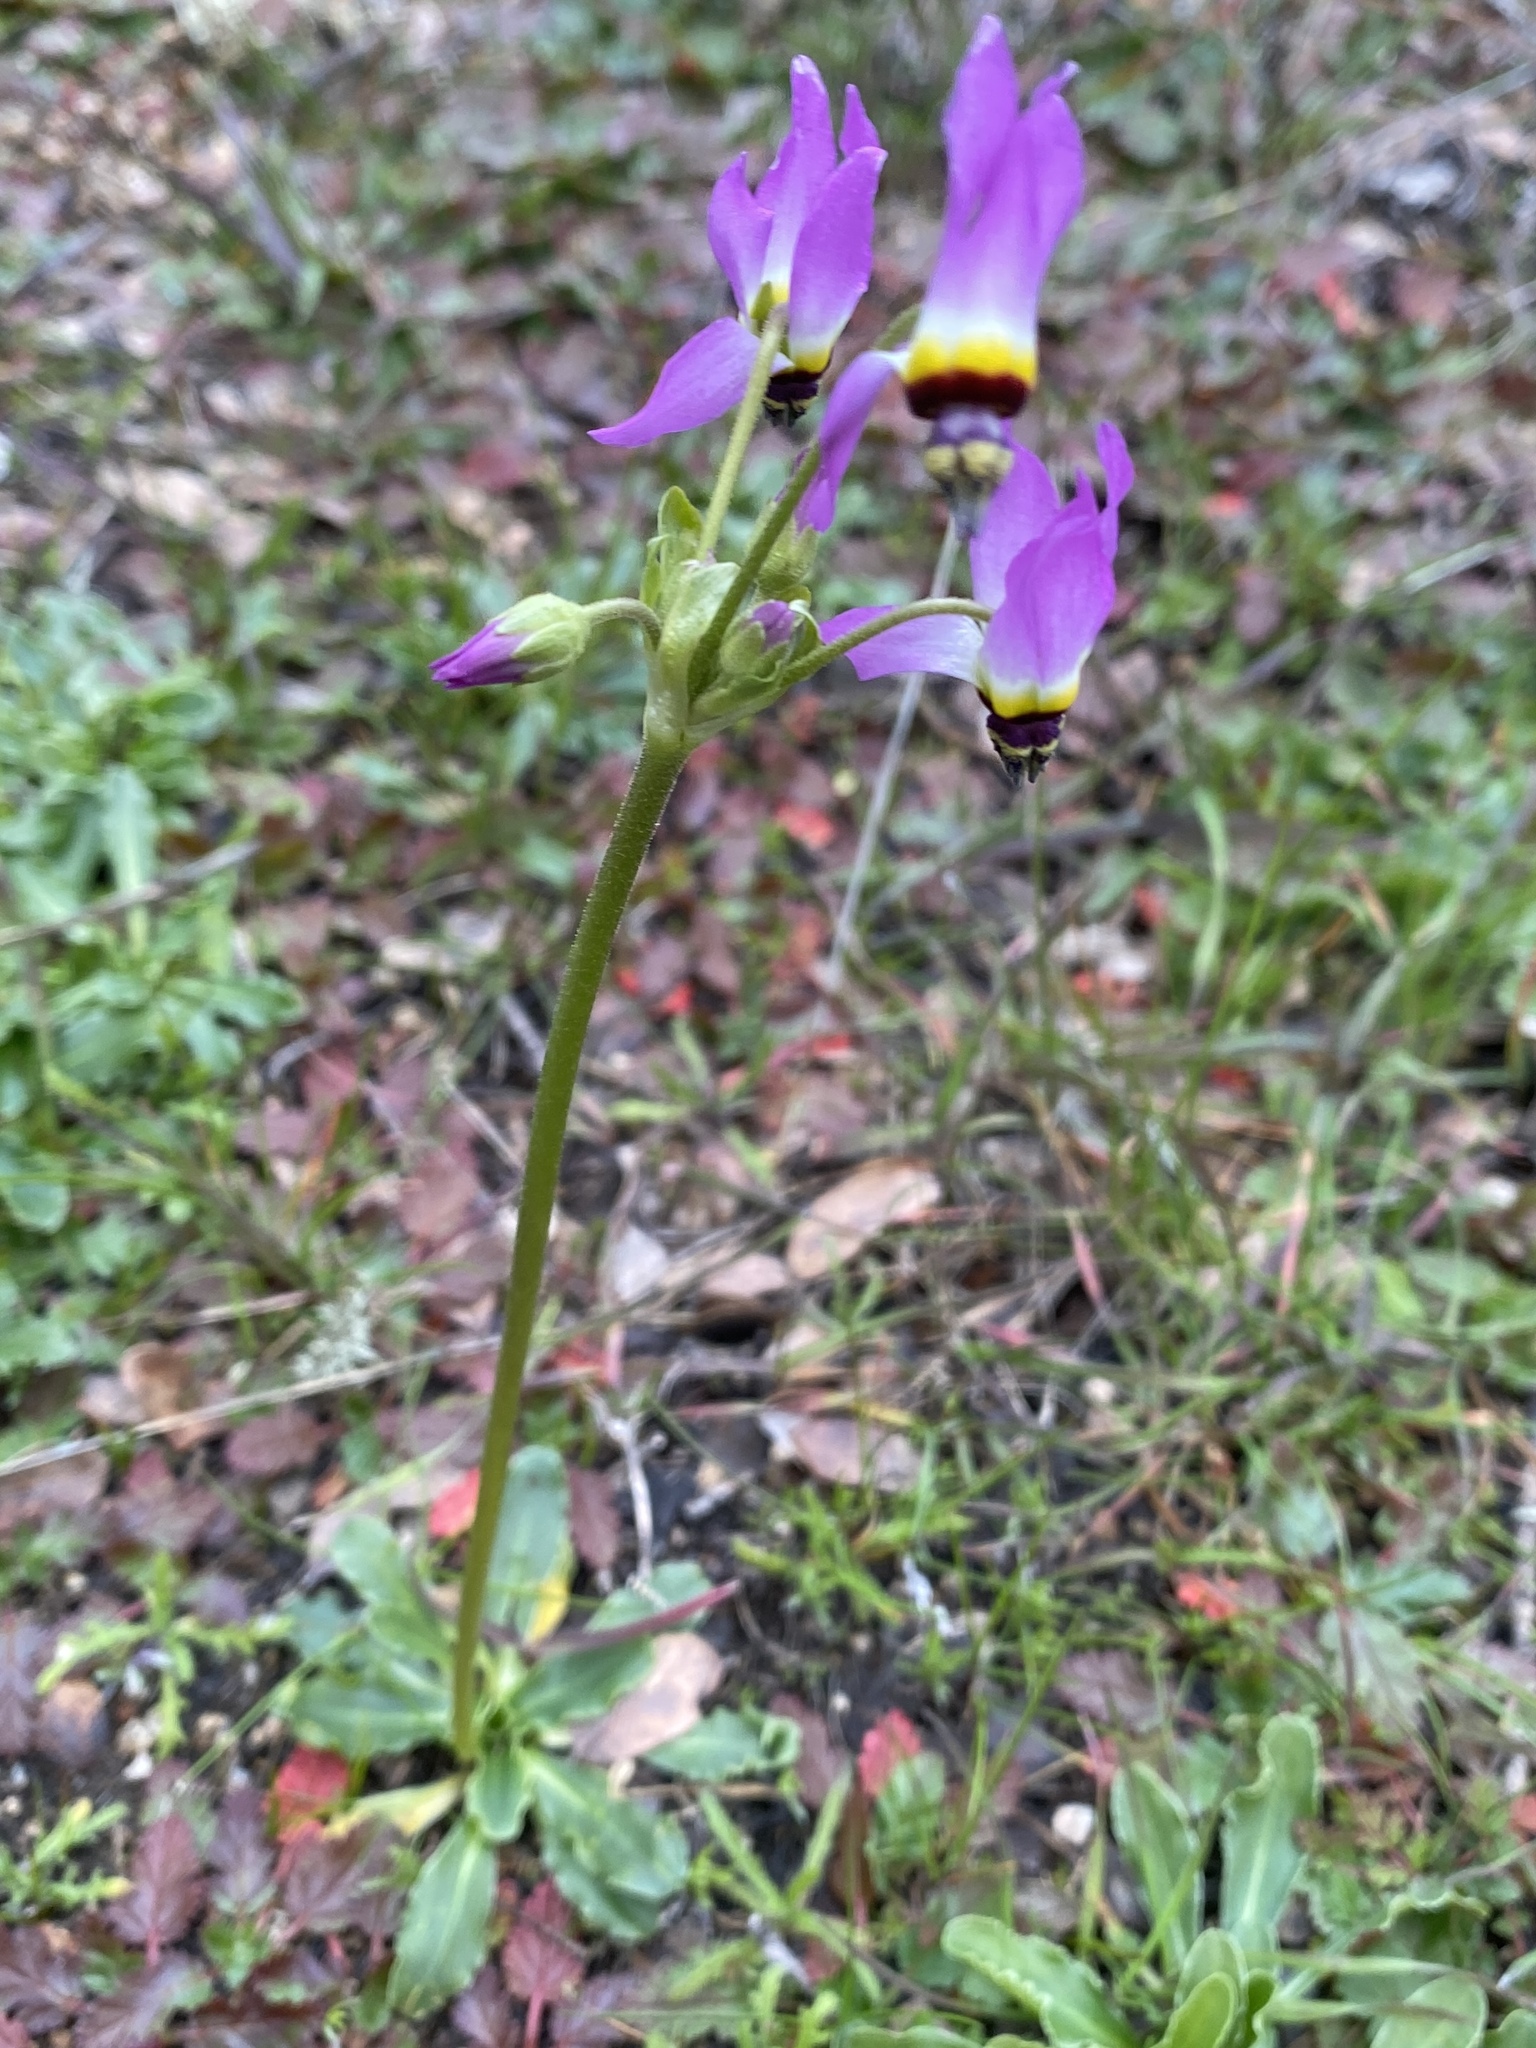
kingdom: Plantae
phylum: Tracheophyta
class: Magnoliopsida
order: Ericales
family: Primulaceae
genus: Dodecatheon
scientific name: Dodecatheon clevelandii
